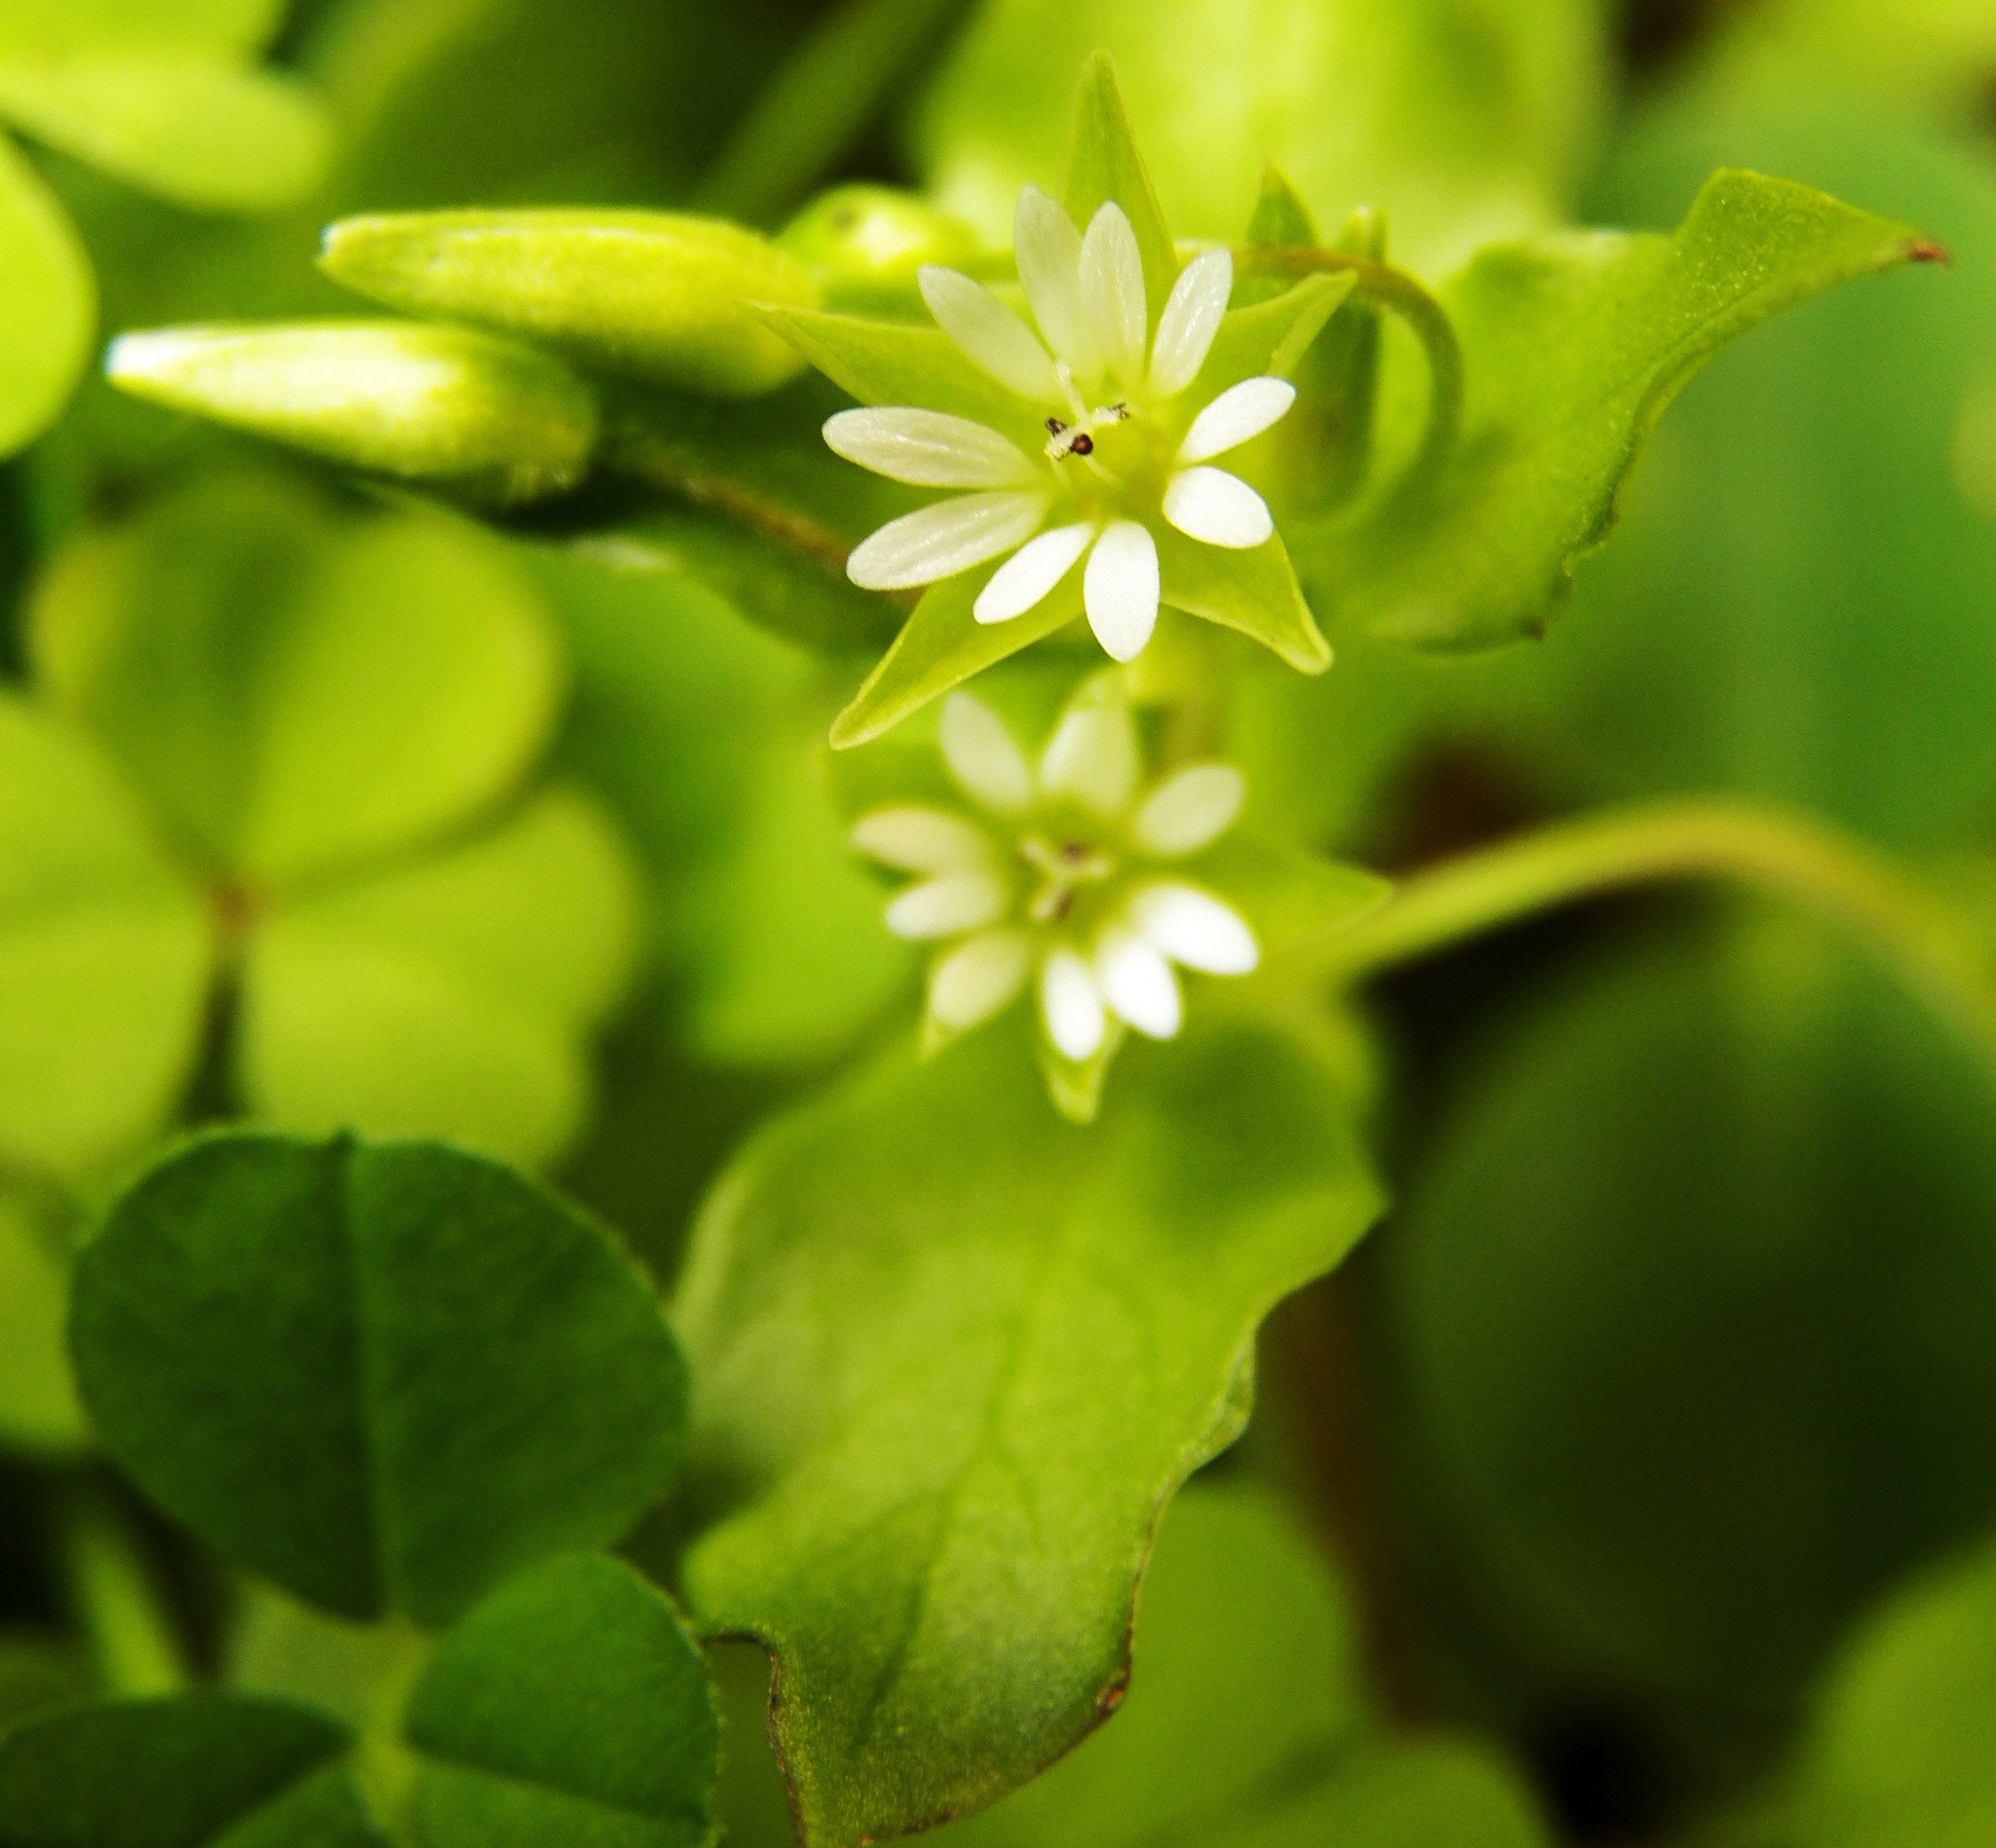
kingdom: Plantae
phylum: Tracheophyta
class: Magnoliopsida
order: Caryophyllales
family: Caryophyllaceae
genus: Stellaria
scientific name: Stellaria media
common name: Common chickweed
